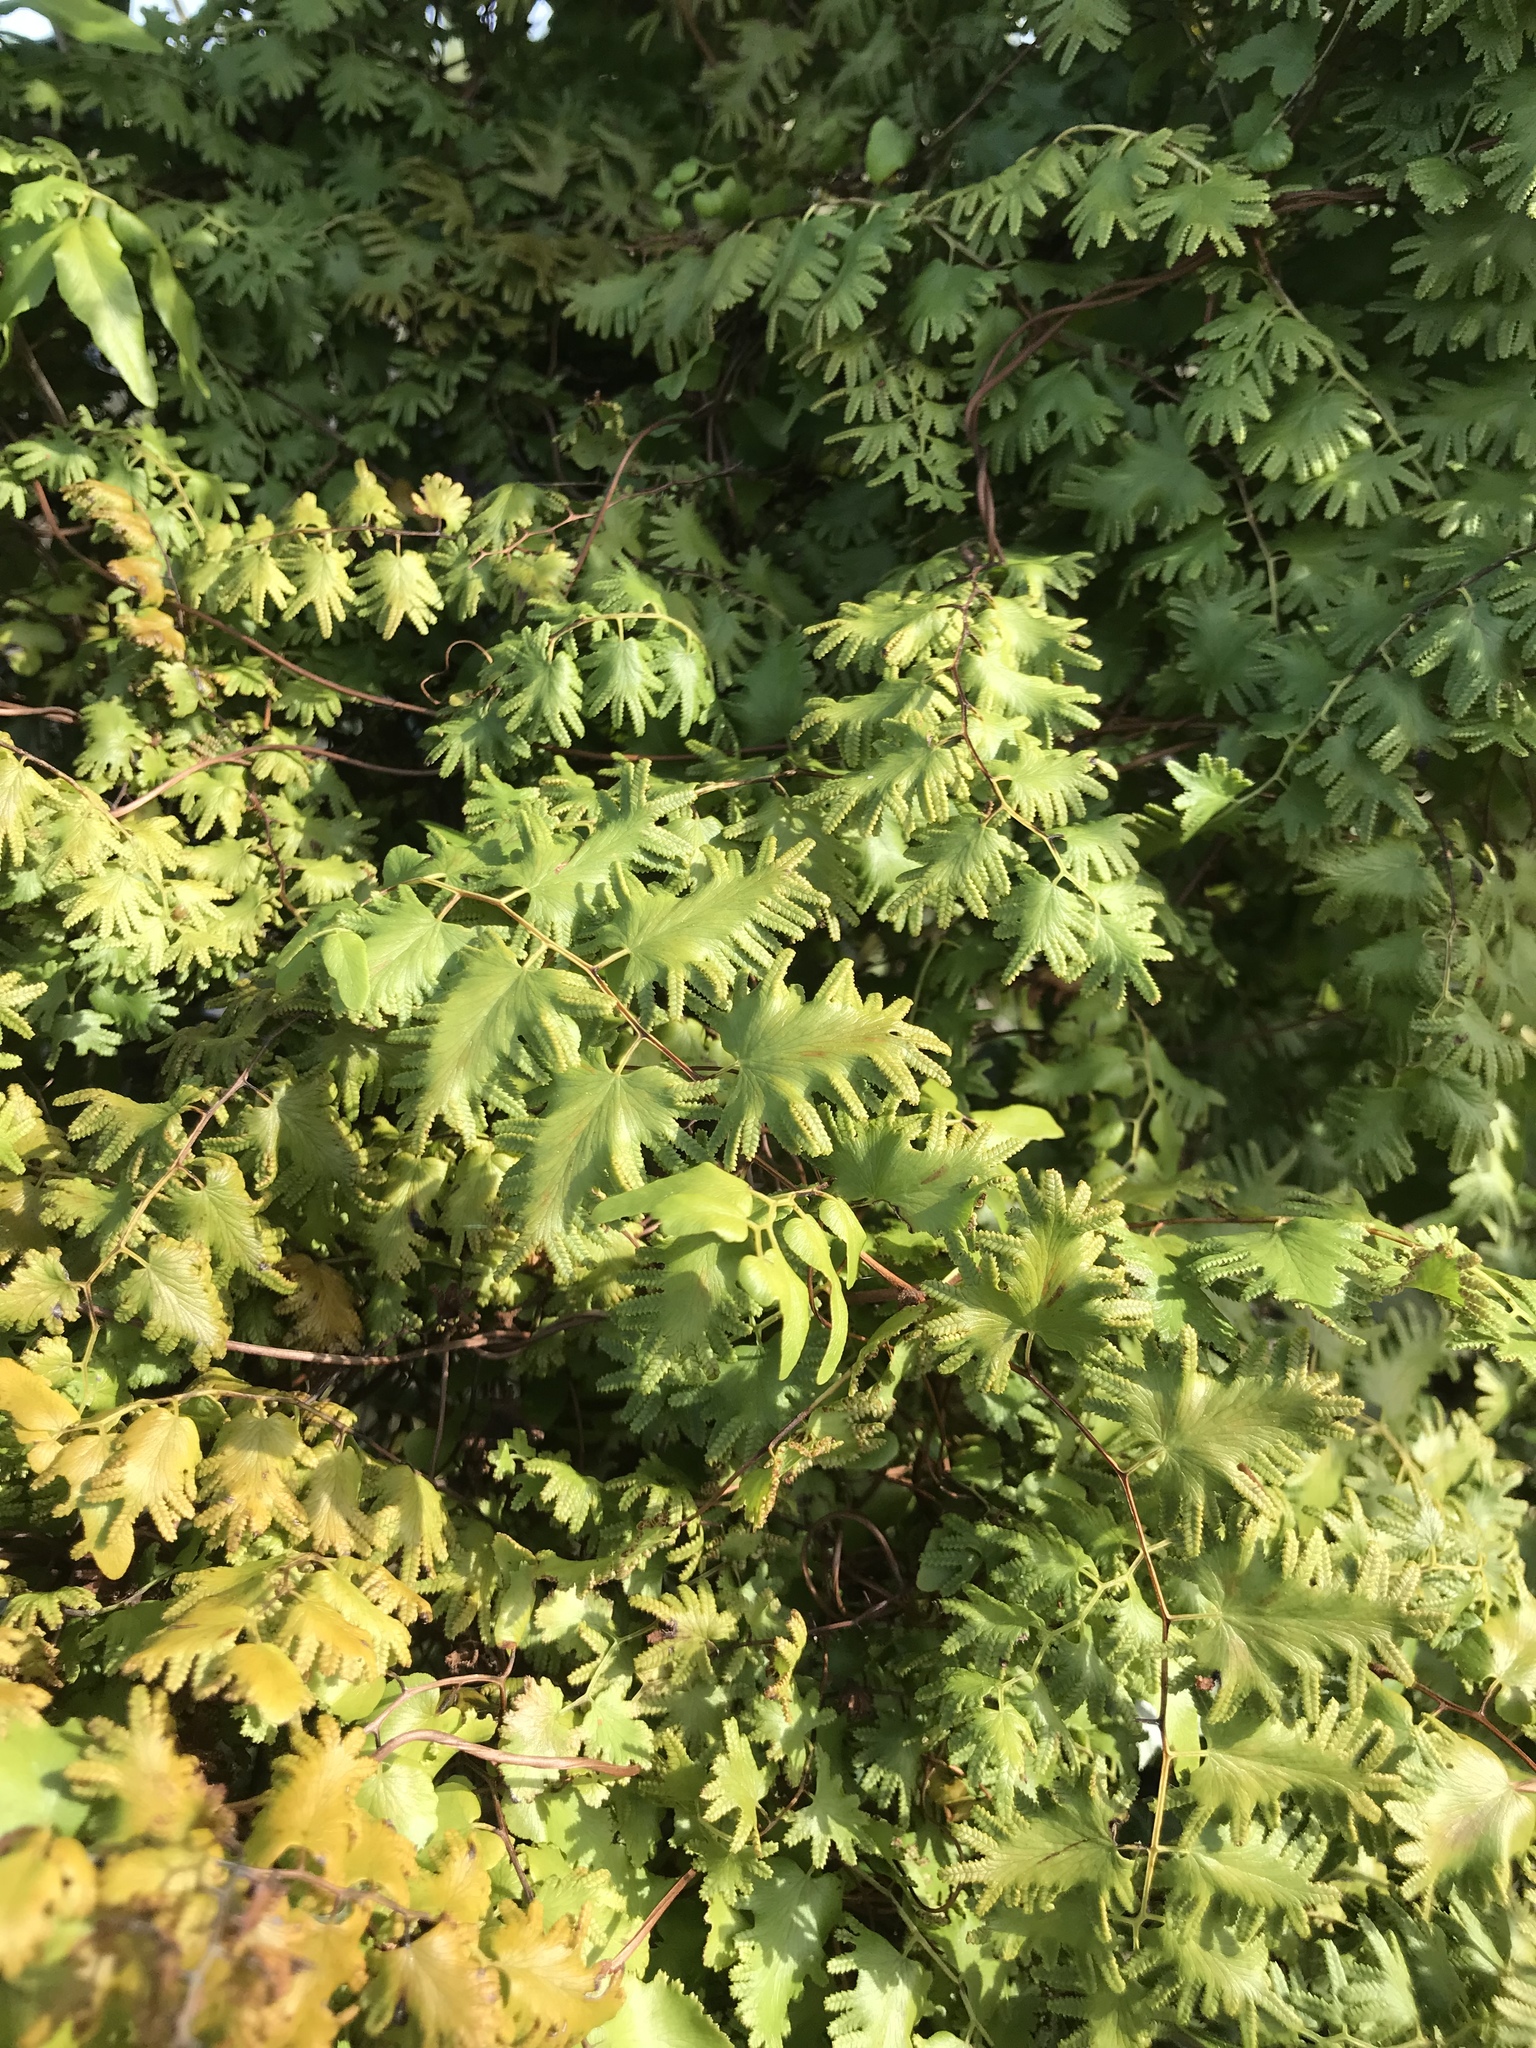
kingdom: Plantae
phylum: Tracheophyta
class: Polypodiopsida
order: Schizaeales
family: Lygodiaceae
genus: Lygodium
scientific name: Lygodium microphyllum
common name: Small-leaf climbing fern
